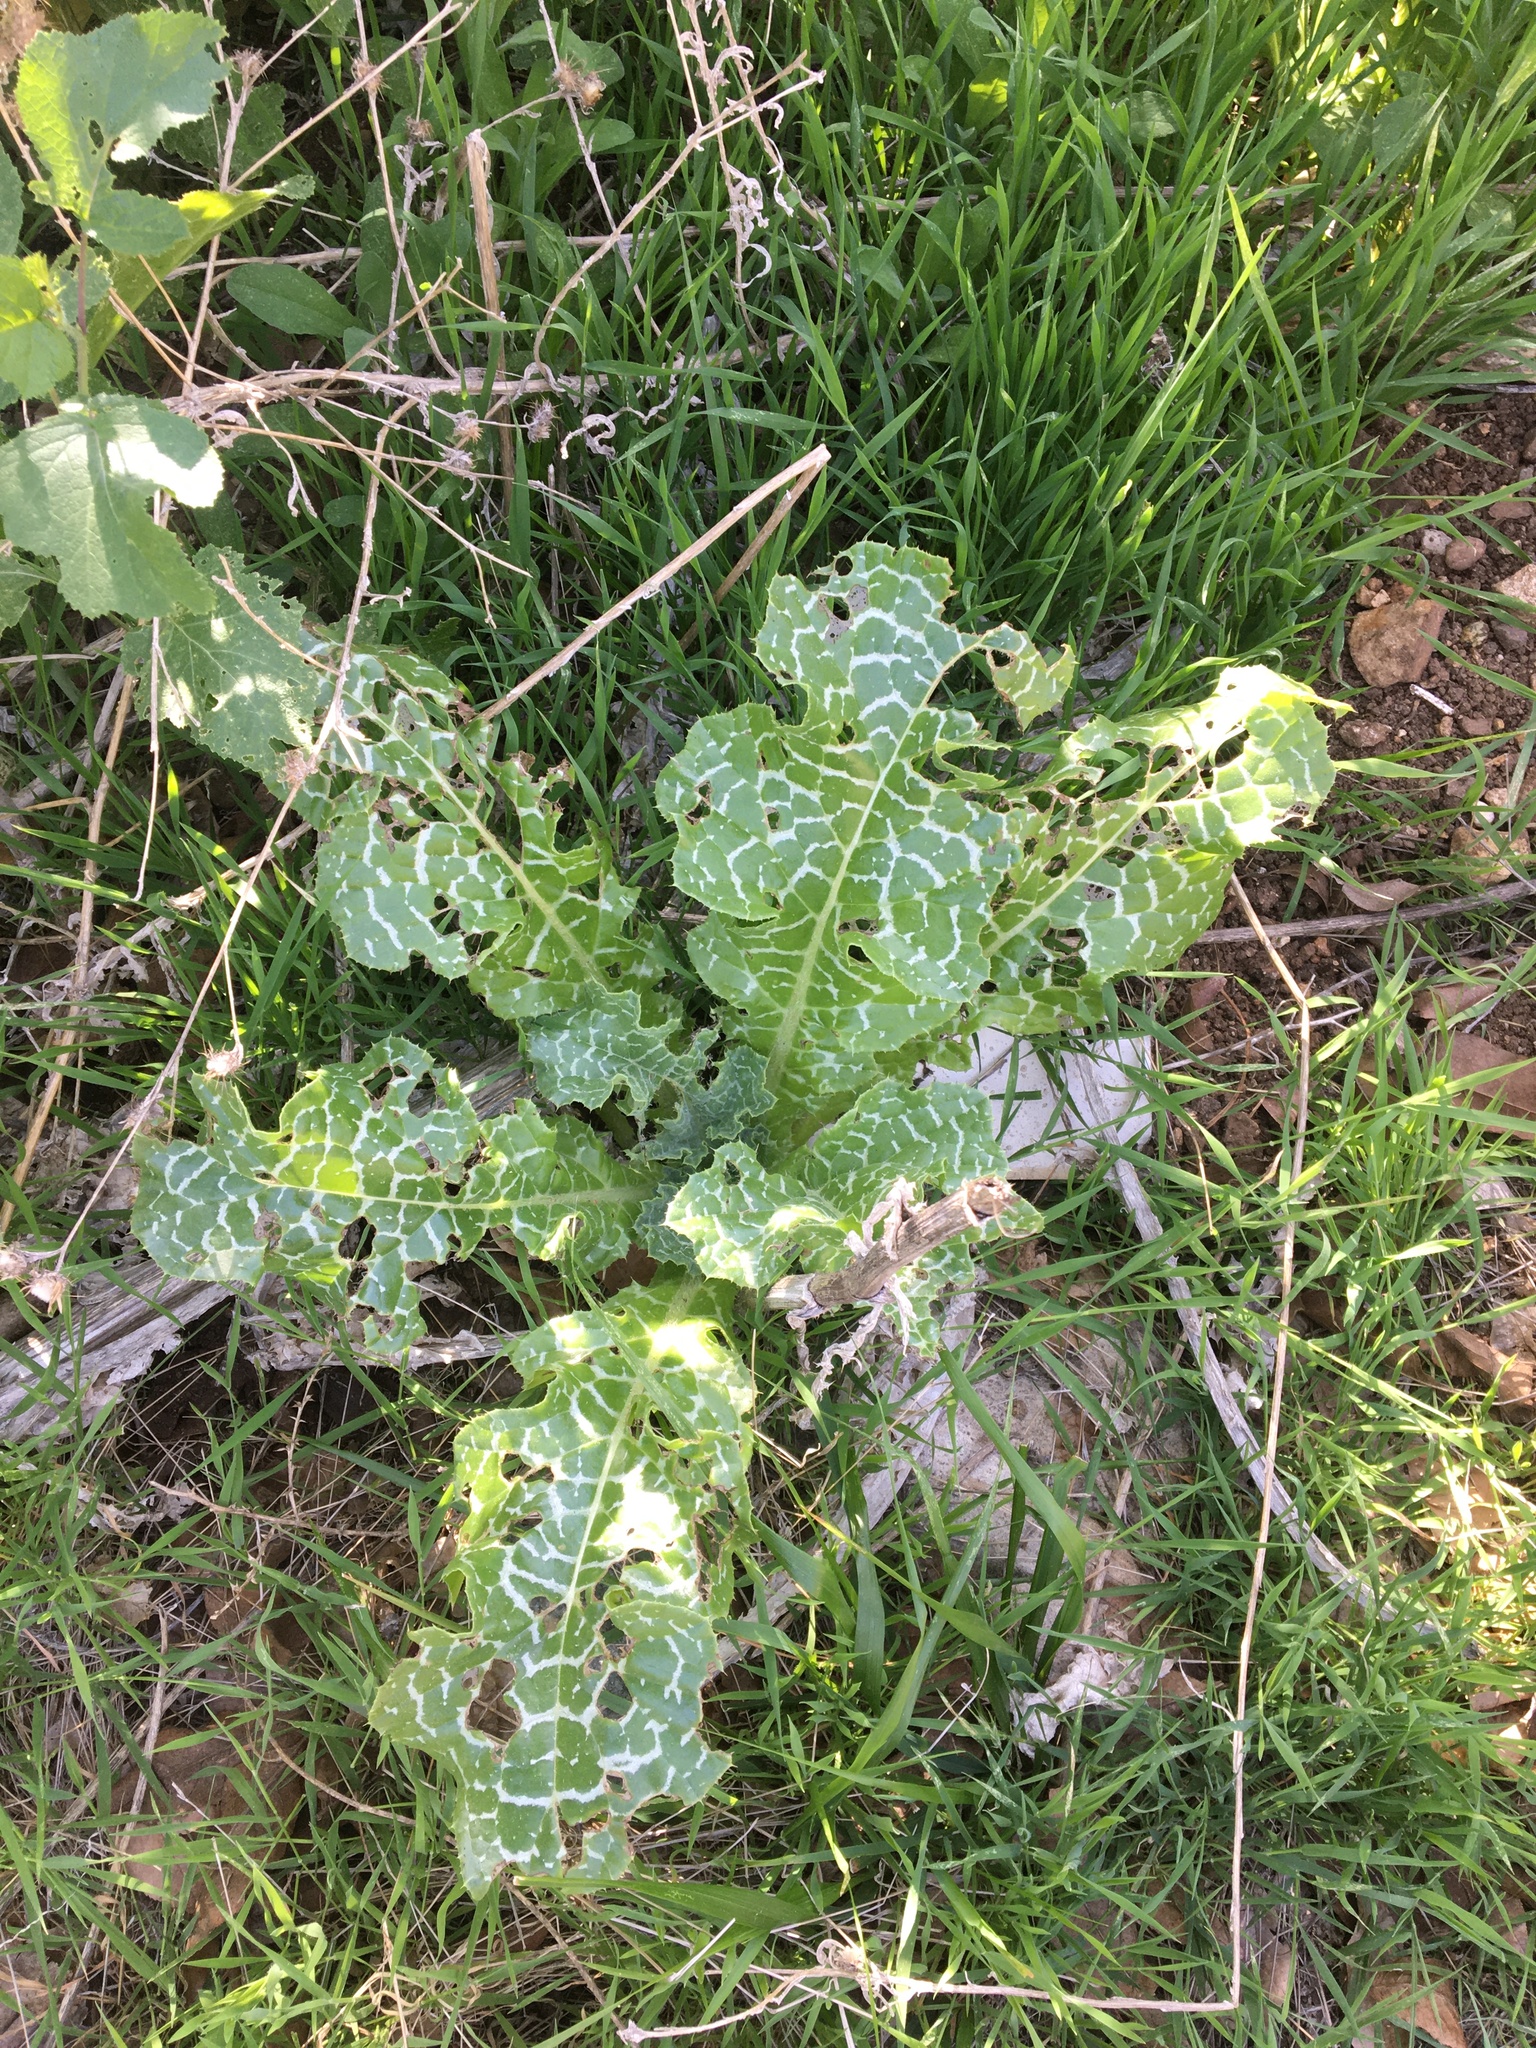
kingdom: Plantae
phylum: Tracheophyta
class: Magnoliopsida
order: Asterales
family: Asteraceae
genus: Silybum
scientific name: Silybum marianum
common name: Milk thistle
